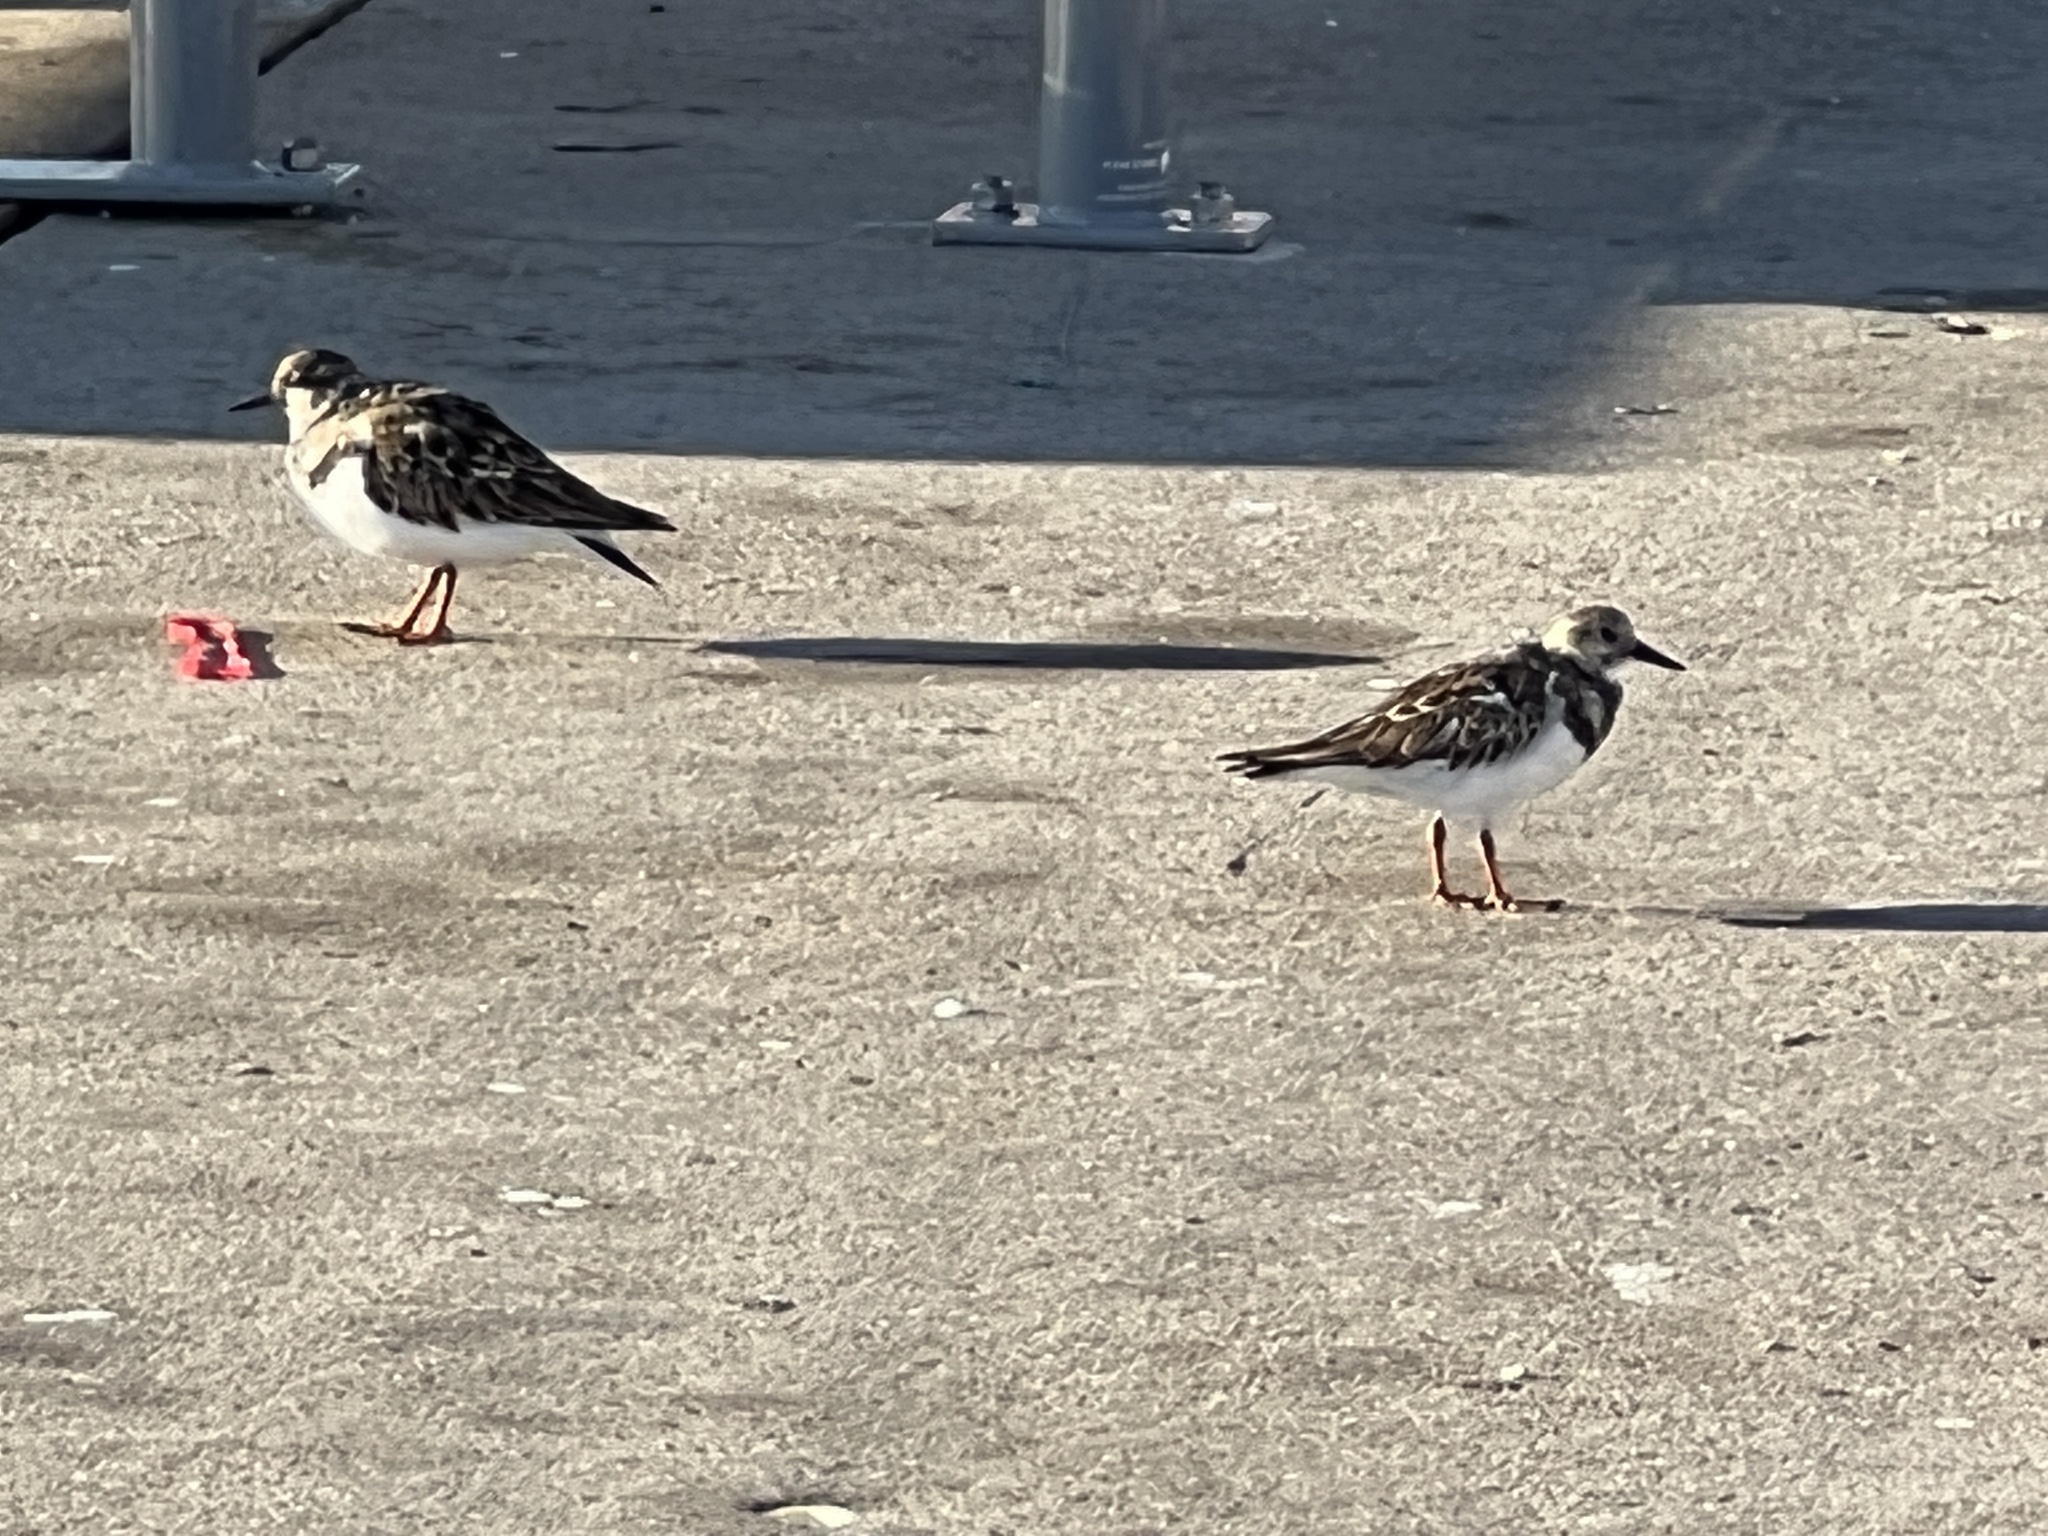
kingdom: Animalia
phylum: Chordata
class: Aves
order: Charadriiformes
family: Scolopacidae
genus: Arenaria
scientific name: Arenaria interpres
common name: Ruddy turnstone
